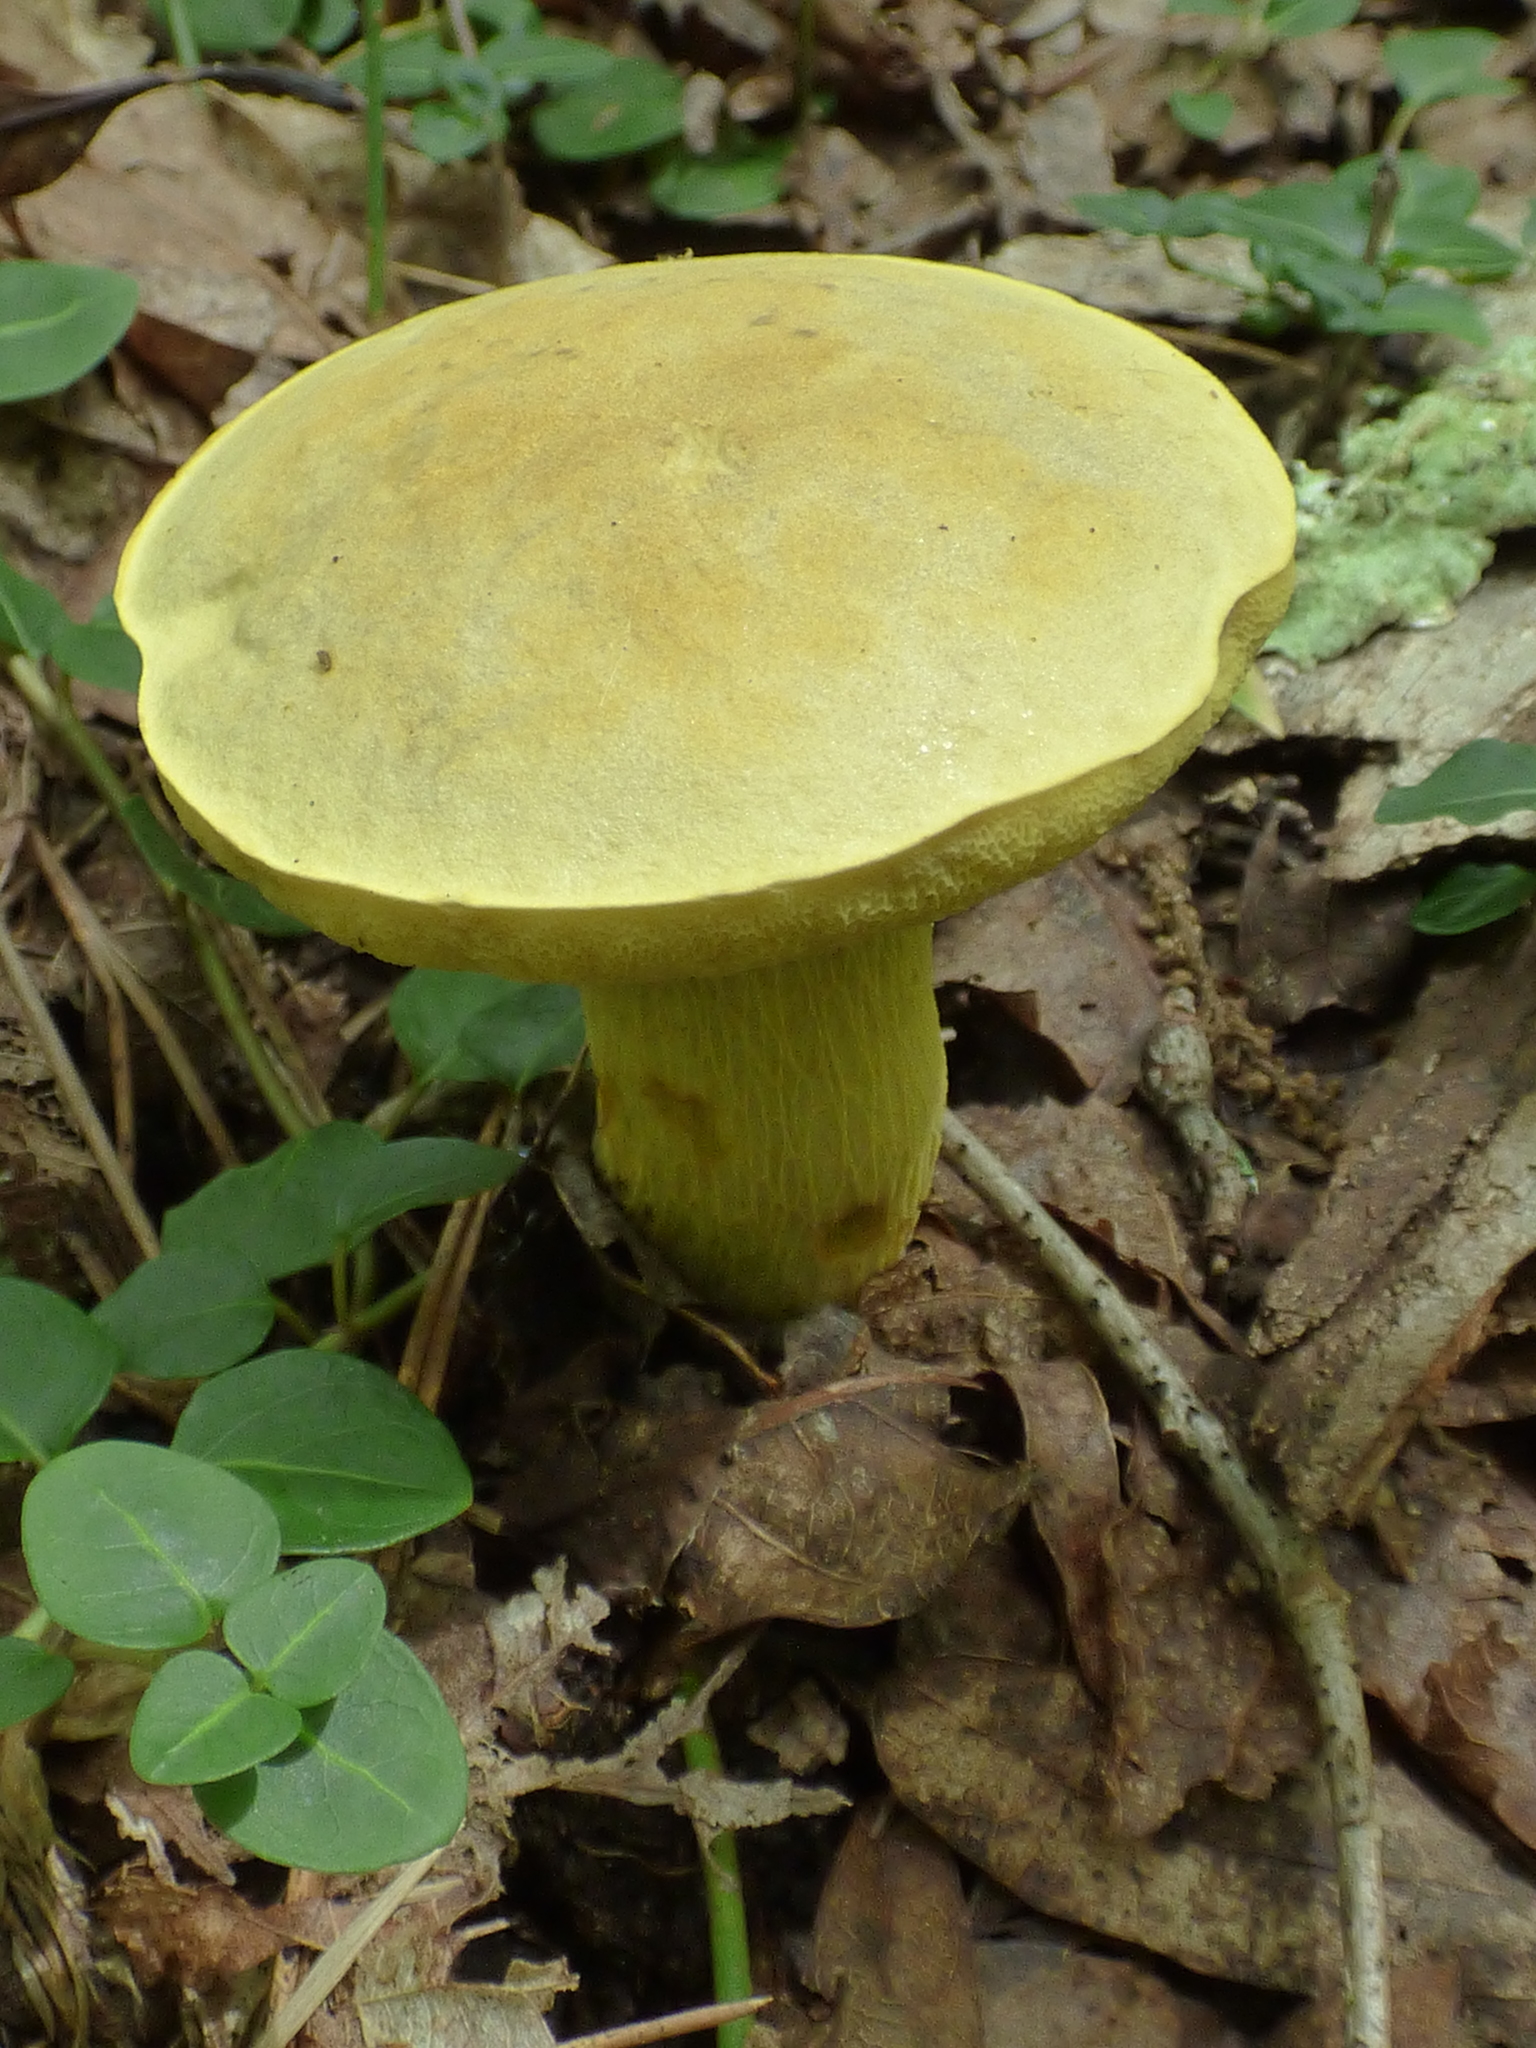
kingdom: Fungi
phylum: Basidiomycota
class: Agaricomycetes
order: Boletales
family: Boletaceae
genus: Retiboletus
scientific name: Retiboletus ornatipes
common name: Ornate-stalked bolete
